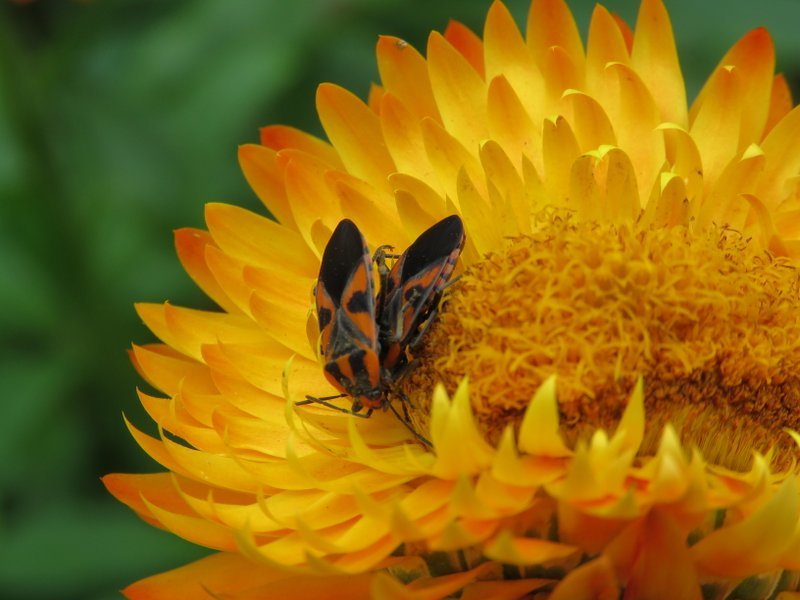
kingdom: Animalia
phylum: Arthropoda
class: Insecta
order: Hemiptera
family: Lygaeidae
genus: Spilostethus
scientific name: Spilostethus pacificus
